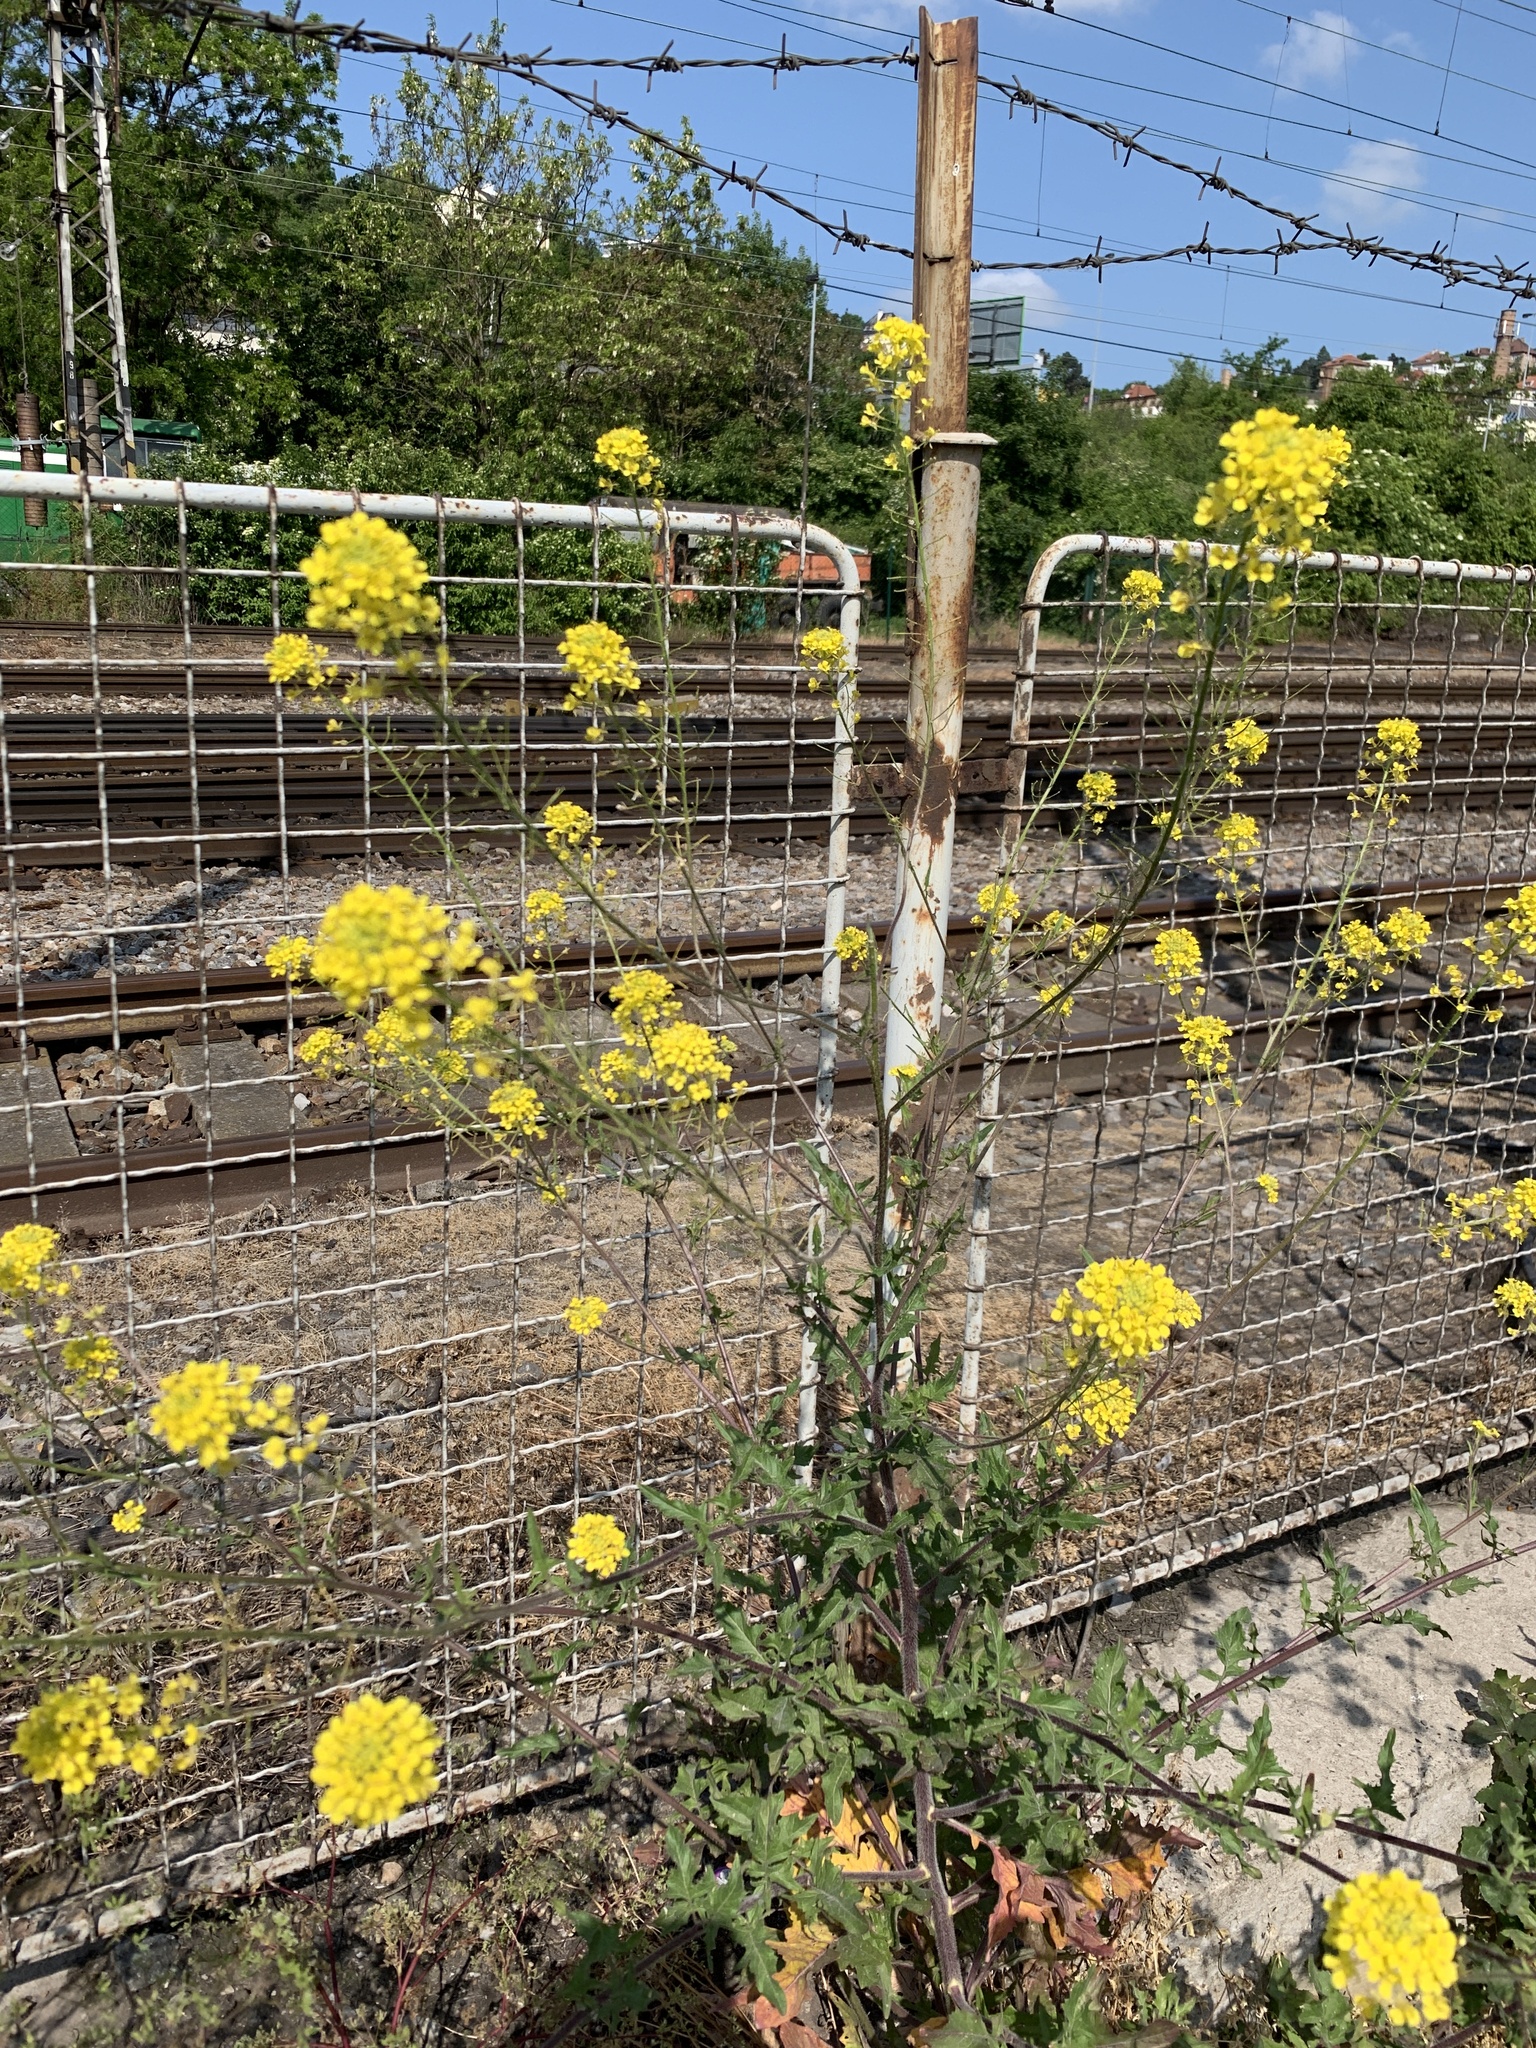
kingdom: Plantae
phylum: Tracheophyta
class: Magnoliopsida
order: Brassicales
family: Brassicaceae
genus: Sisymbrium
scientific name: Sisymbrium loeselii
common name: False london-rocket
